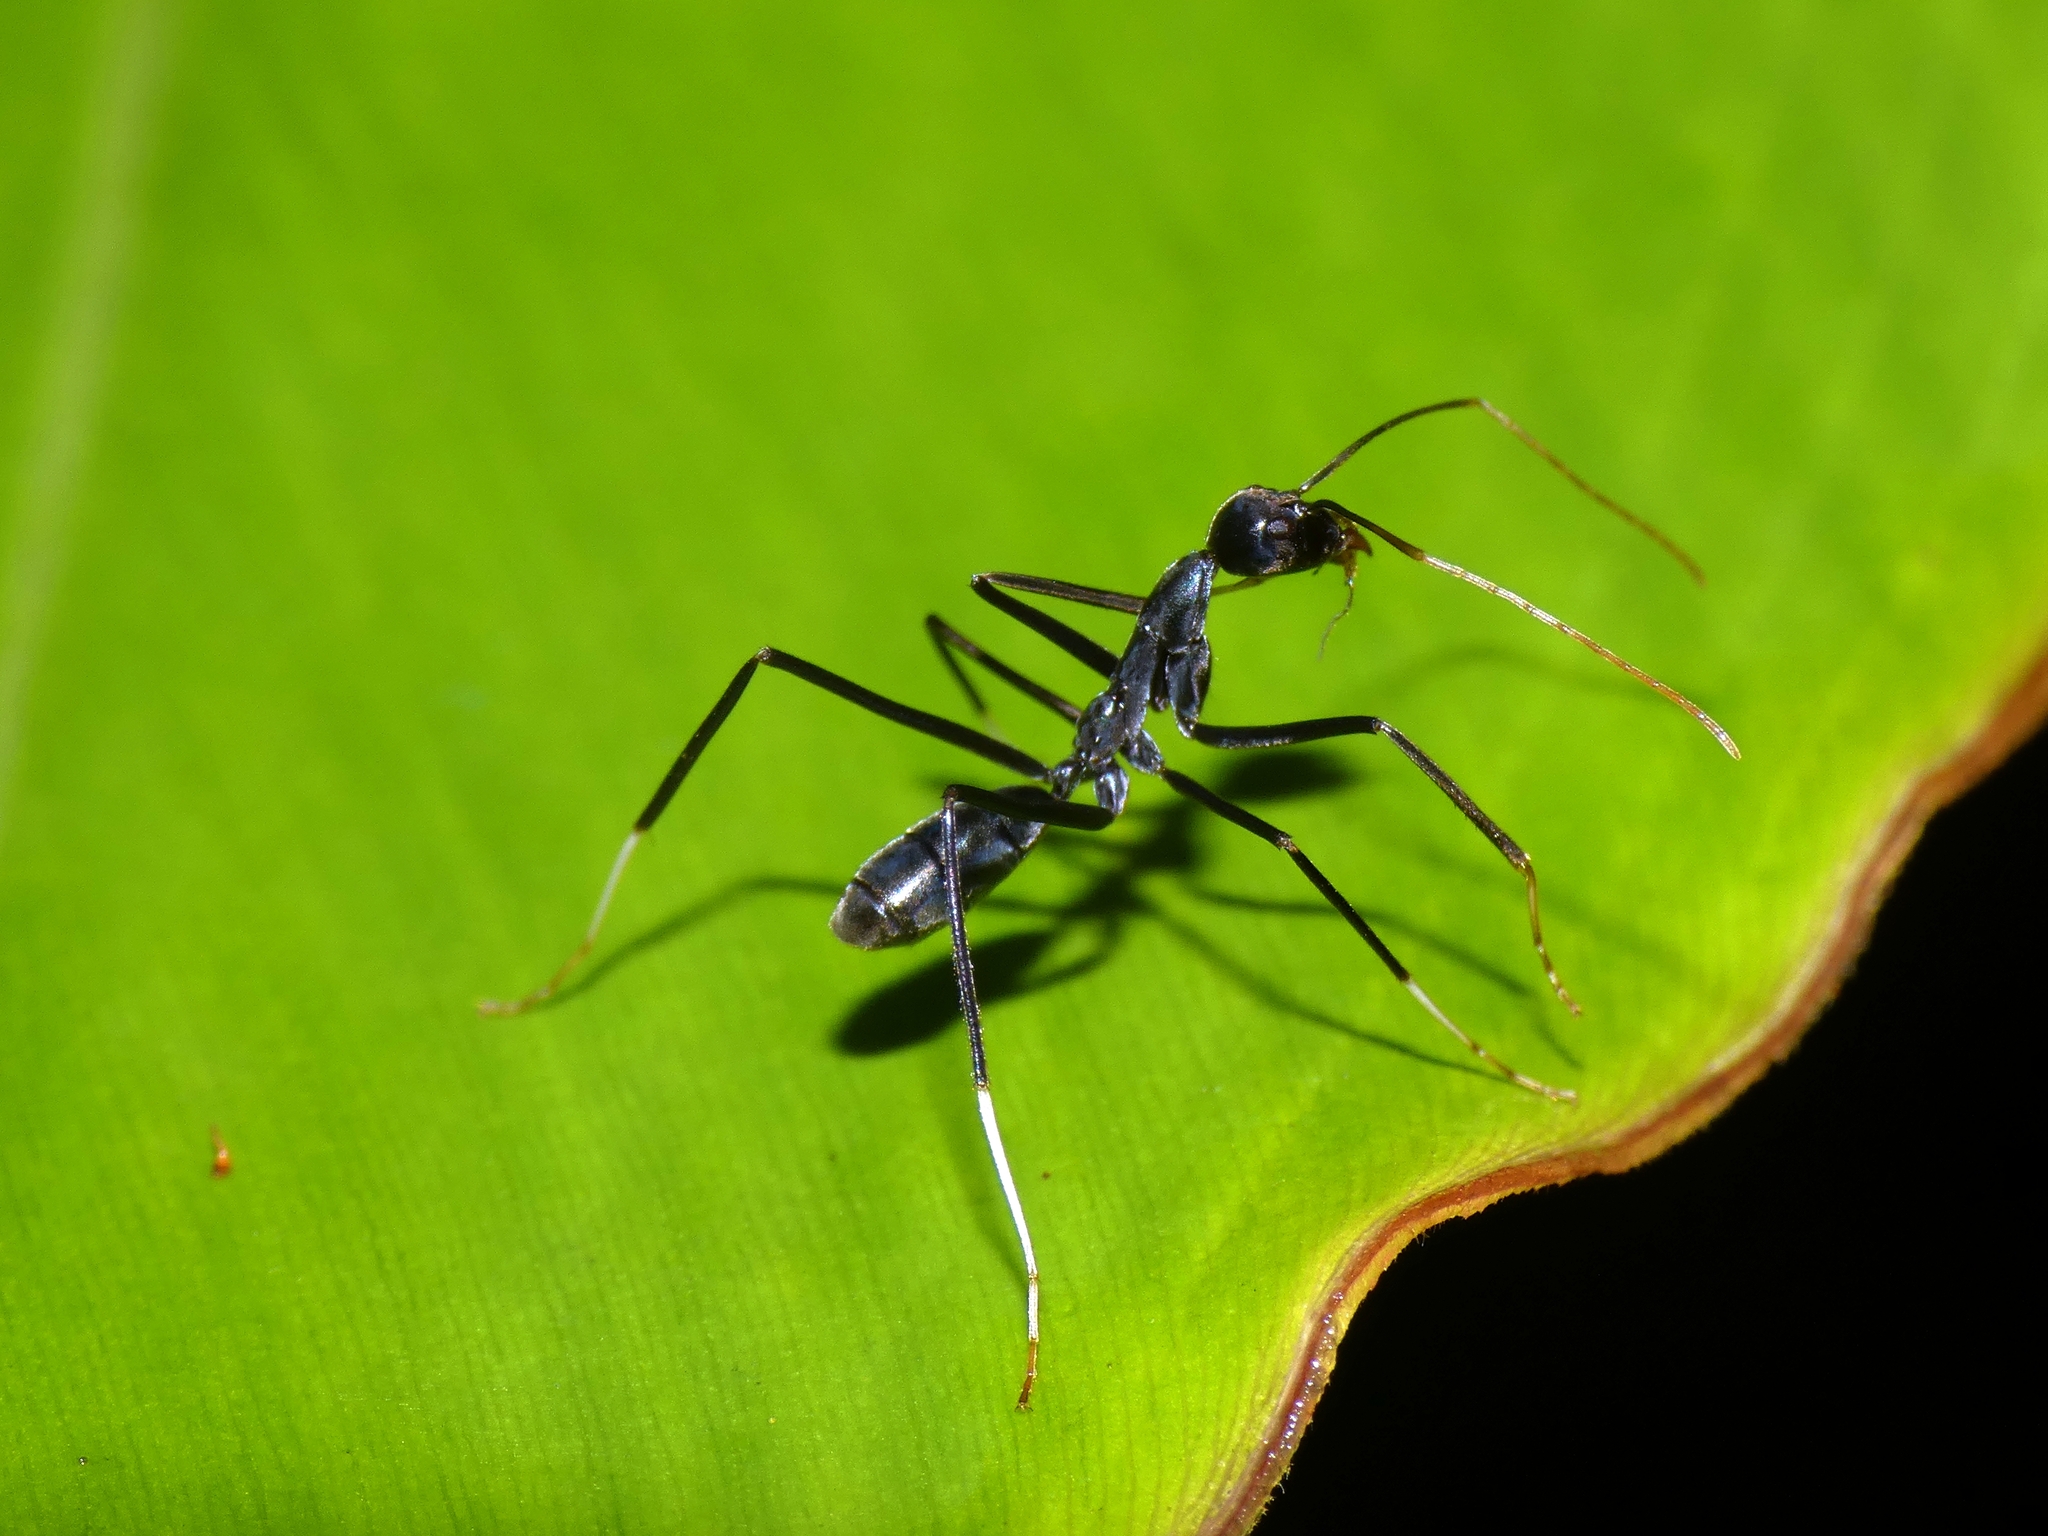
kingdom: Animalia
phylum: Arthropoda
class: Insecta
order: Hymenoptera
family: Formicidae
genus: Leptomyrmex
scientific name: Leptomyrmex unicolor
